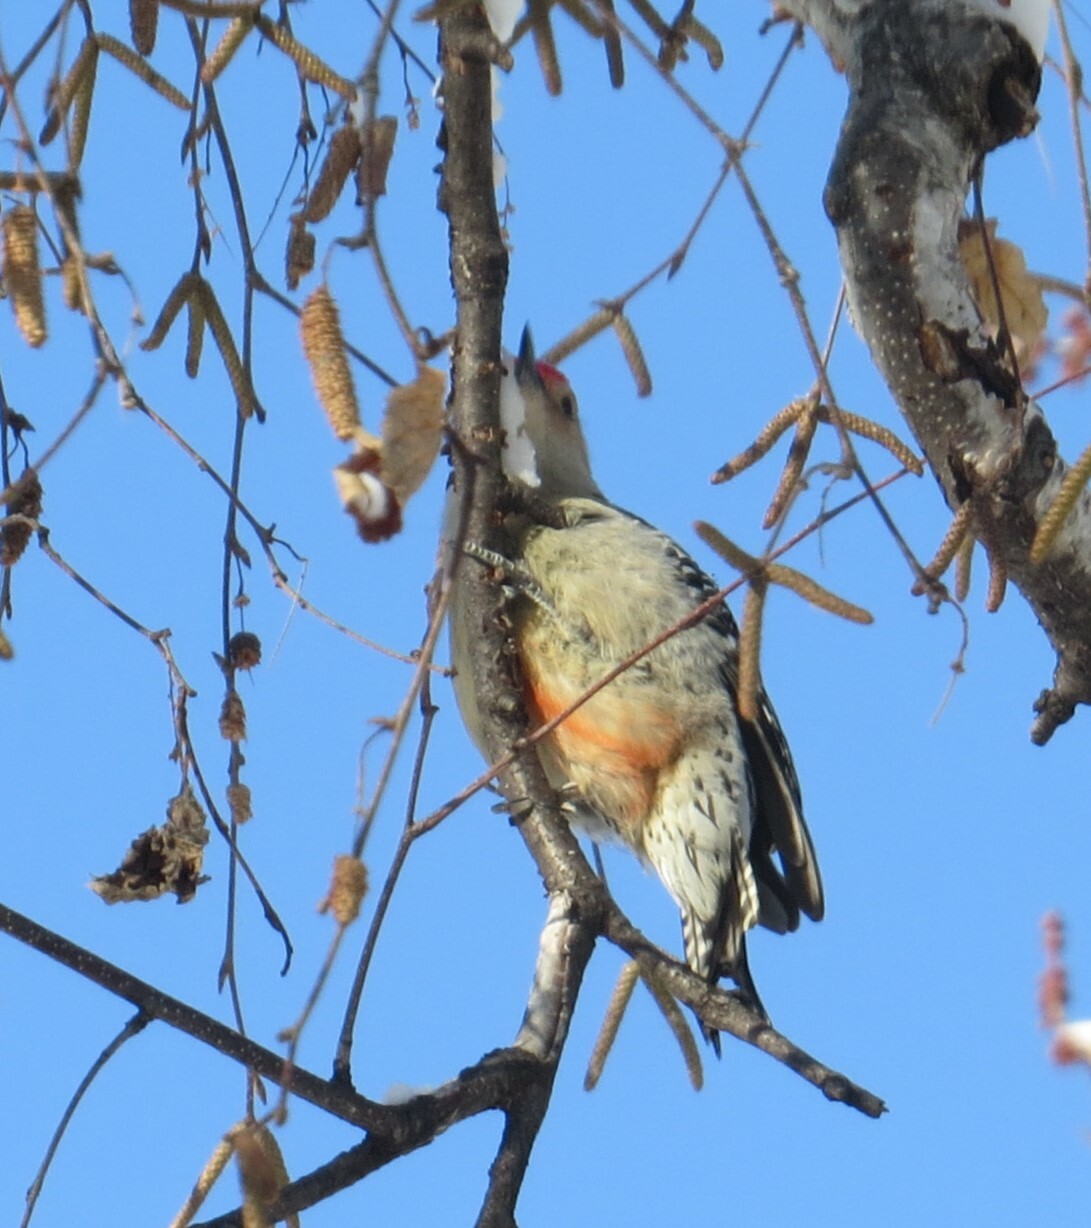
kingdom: Animalia
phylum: Chordata
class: Aves
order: Piciformes
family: Picidae
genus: Melanerpes
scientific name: Melanerpes carolinus
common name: Red-bellied woodpecker
